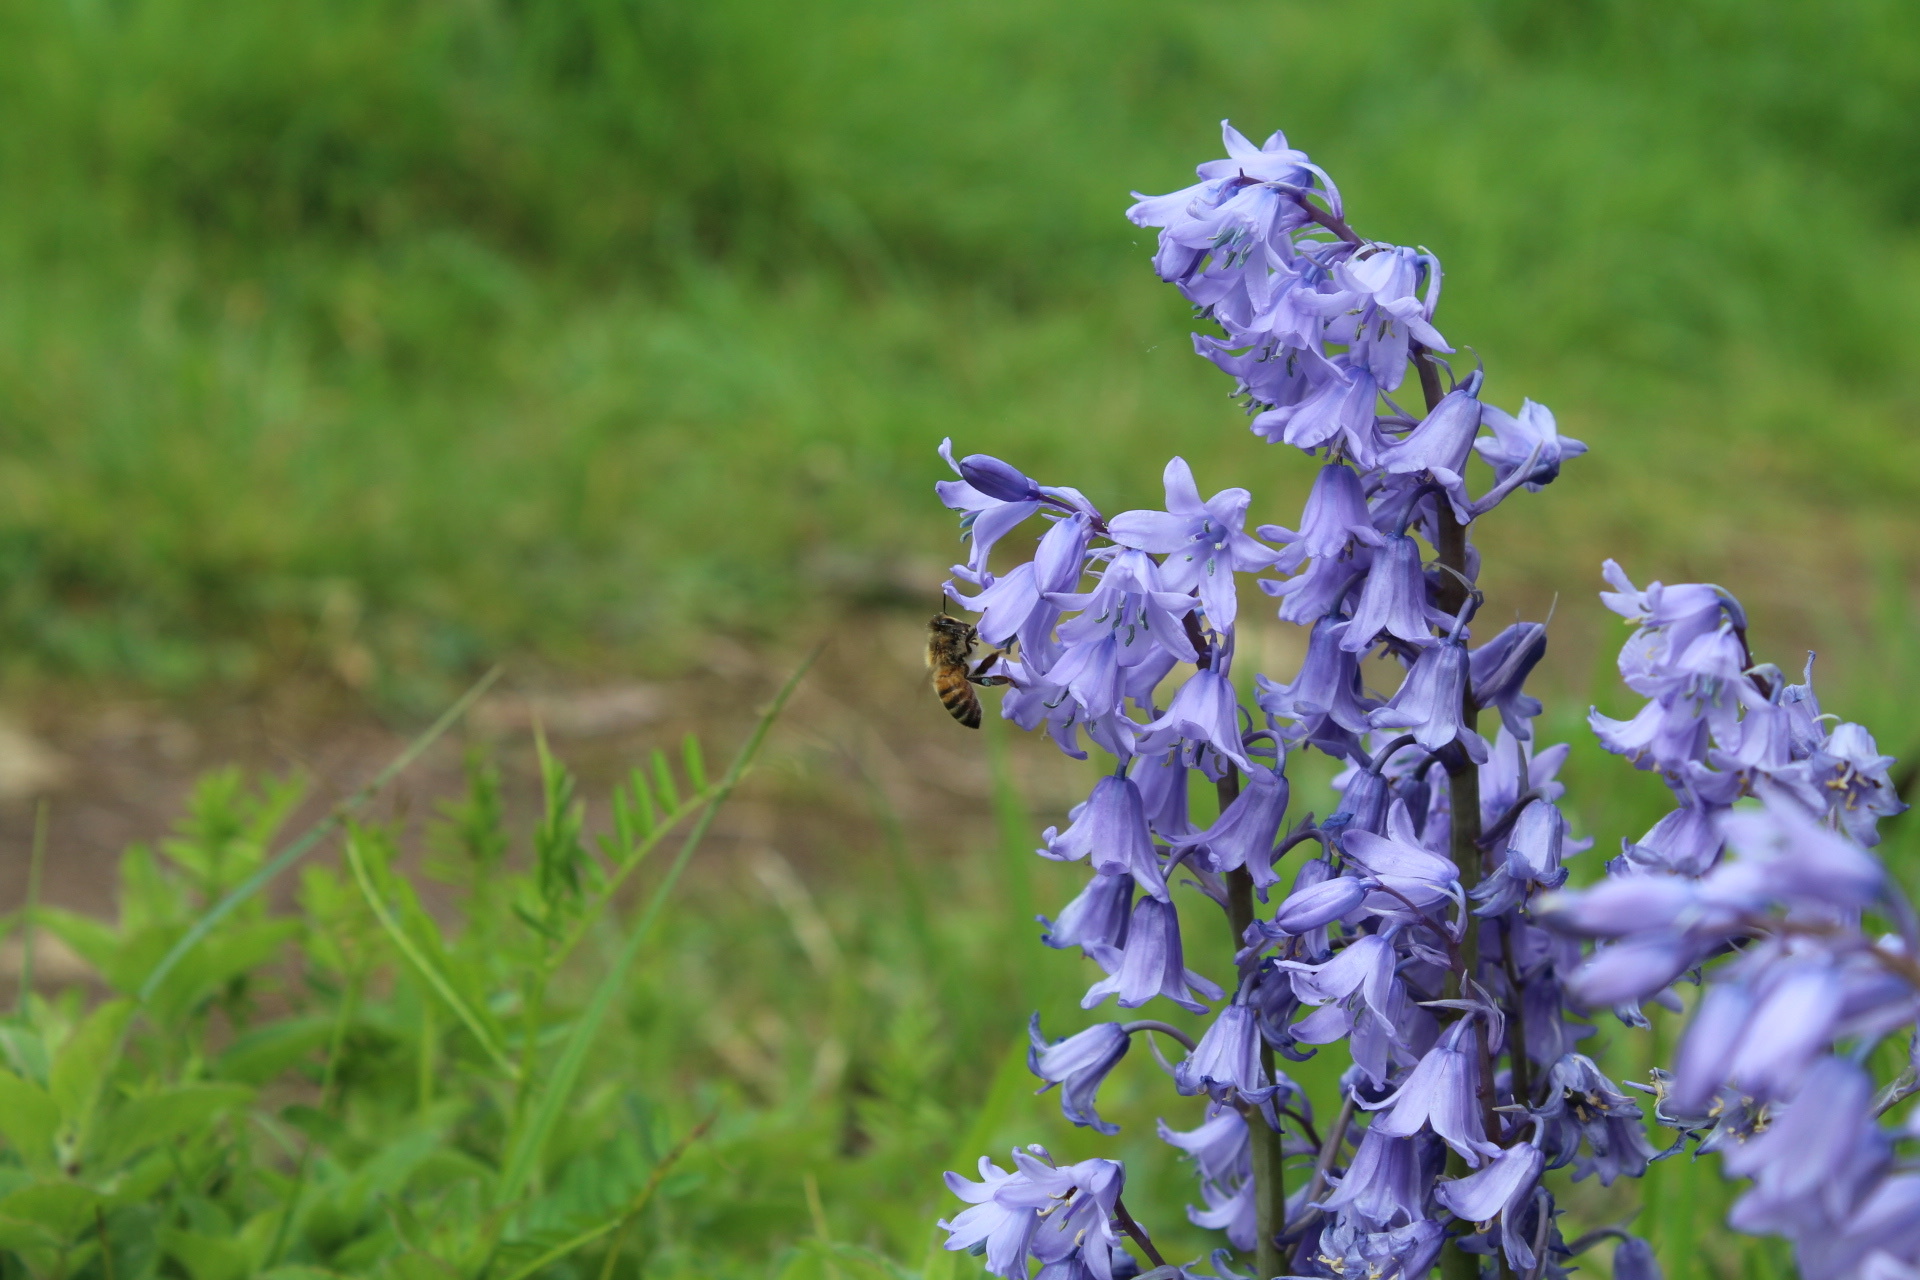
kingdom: Animalia
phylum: Arthropoda
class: Insecta
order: Hymenoptera
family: Apidae
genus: Apis
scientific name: Apis mellifera
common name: Honey bee
